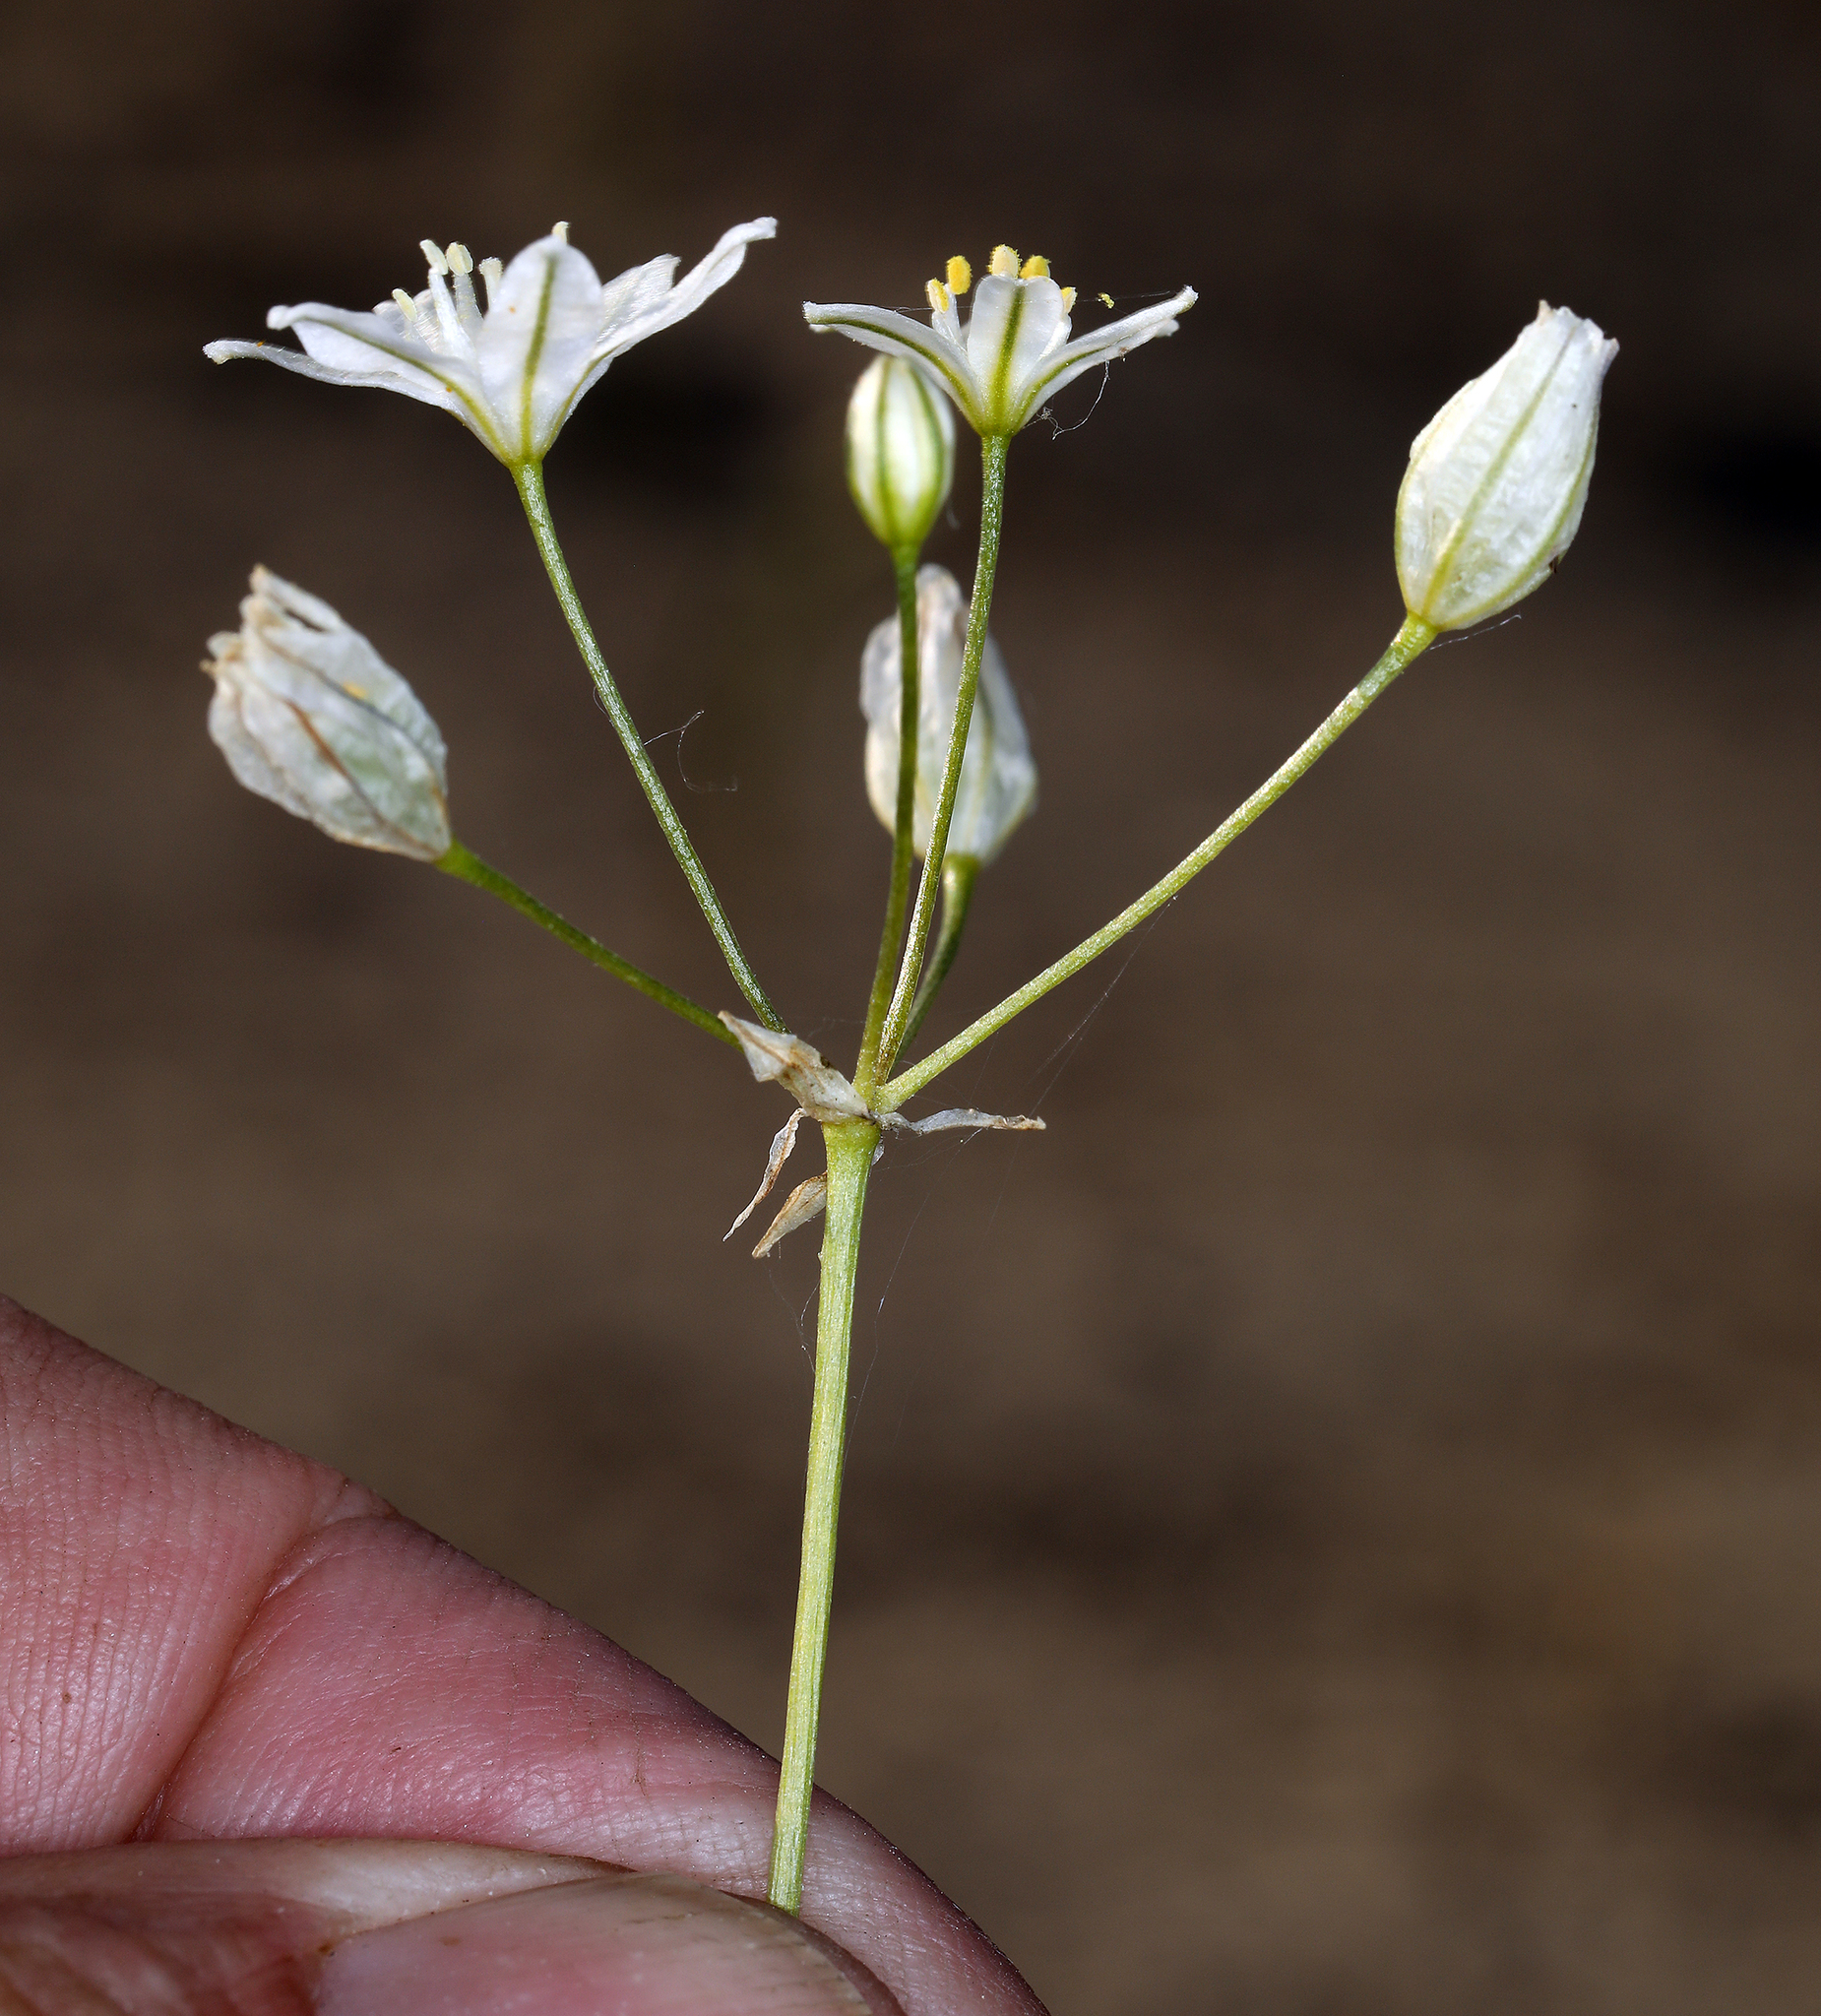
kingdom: Plantae
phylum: Tracheophyta
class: Liliopsida
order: Asparagales
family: Asparagaceae
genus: Triteleia
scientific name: Triteleia hyacinthina
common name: White brodiaea
